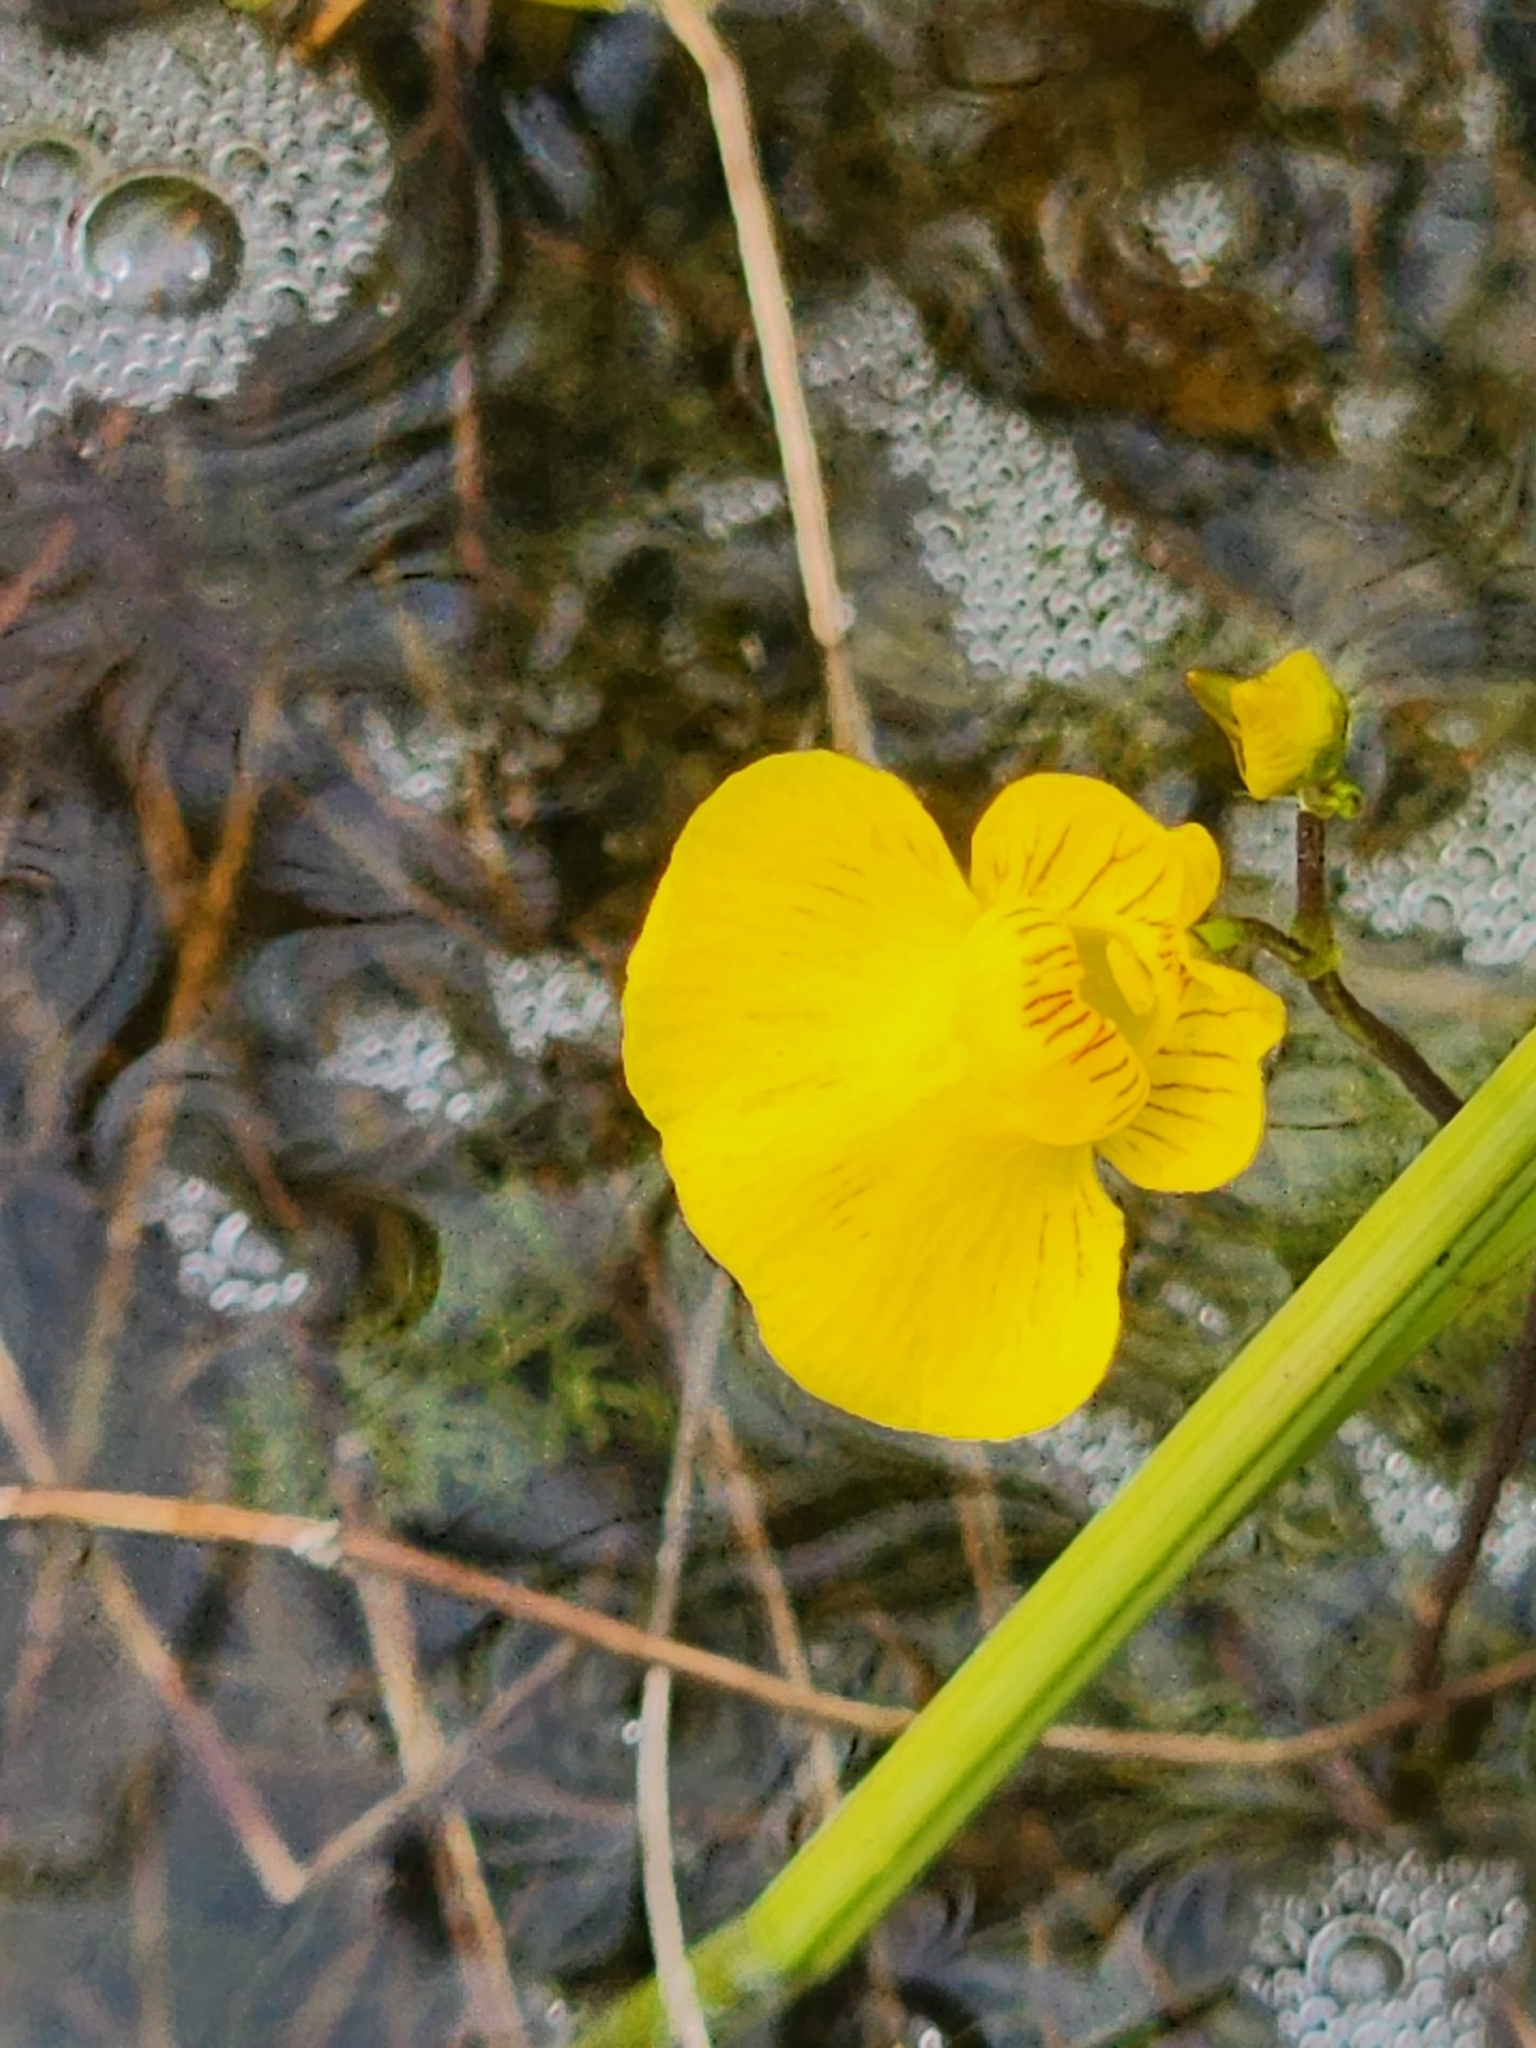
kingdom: Plantae
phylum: Tracheophyta
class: Magnoliopsida
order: Lamiales
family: Lentibulariaceae
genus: Utricularia
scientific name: Utricularia intermedia
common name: Intermediate bladderwort
